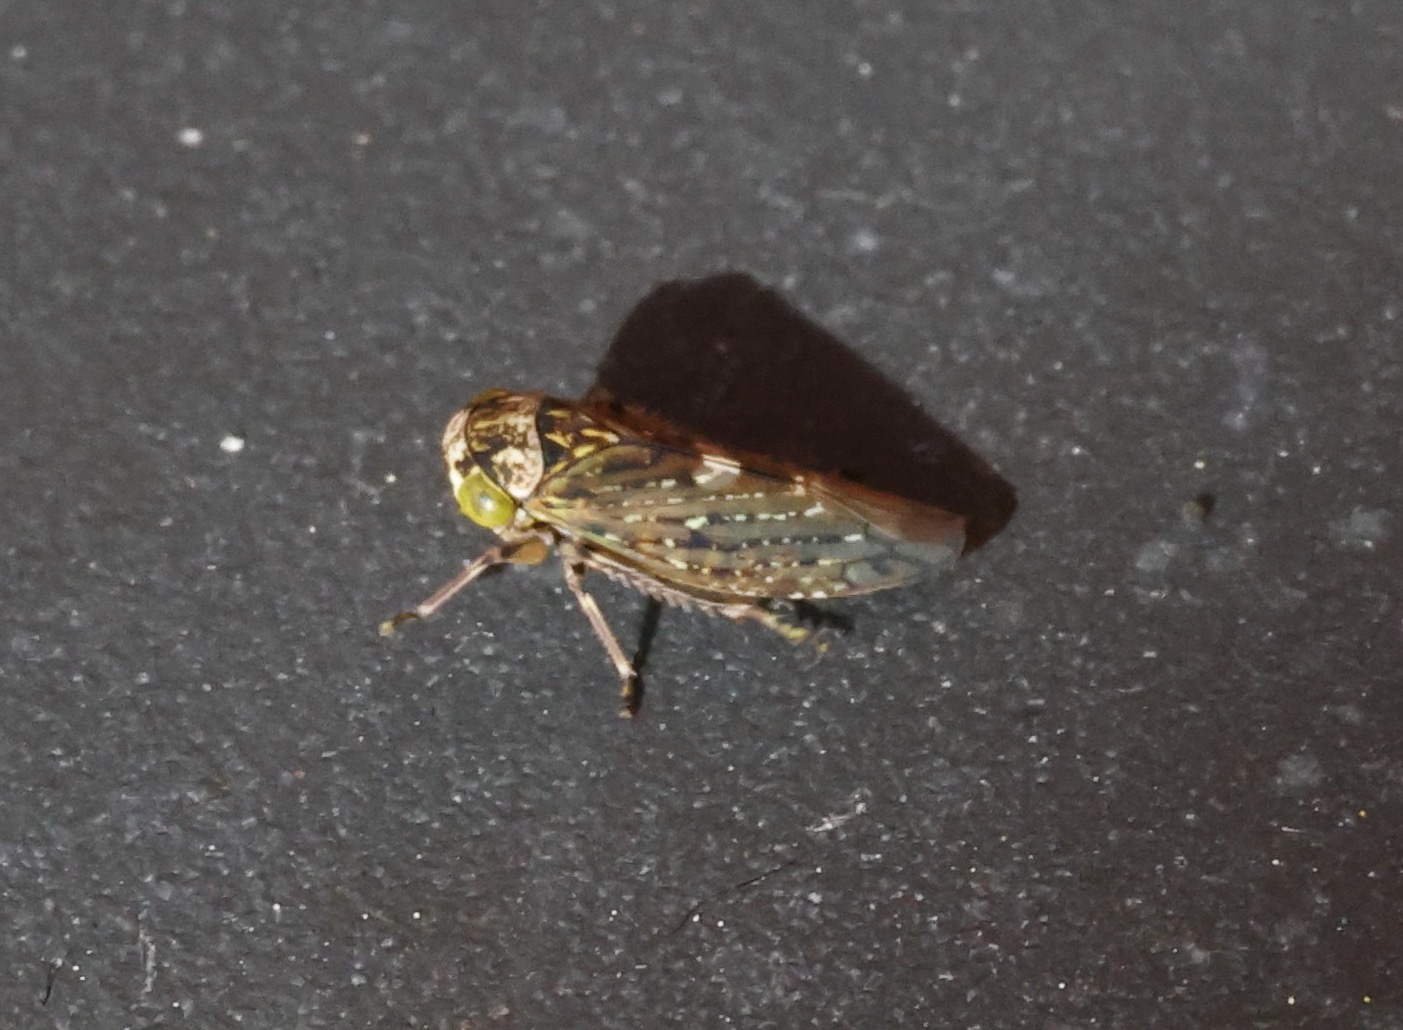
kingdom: Animalia
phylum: Arthropoda
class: Insecta
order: Hemiptera
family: Cicadellidae
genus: Acericerus
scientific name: Acericerus heydenii
